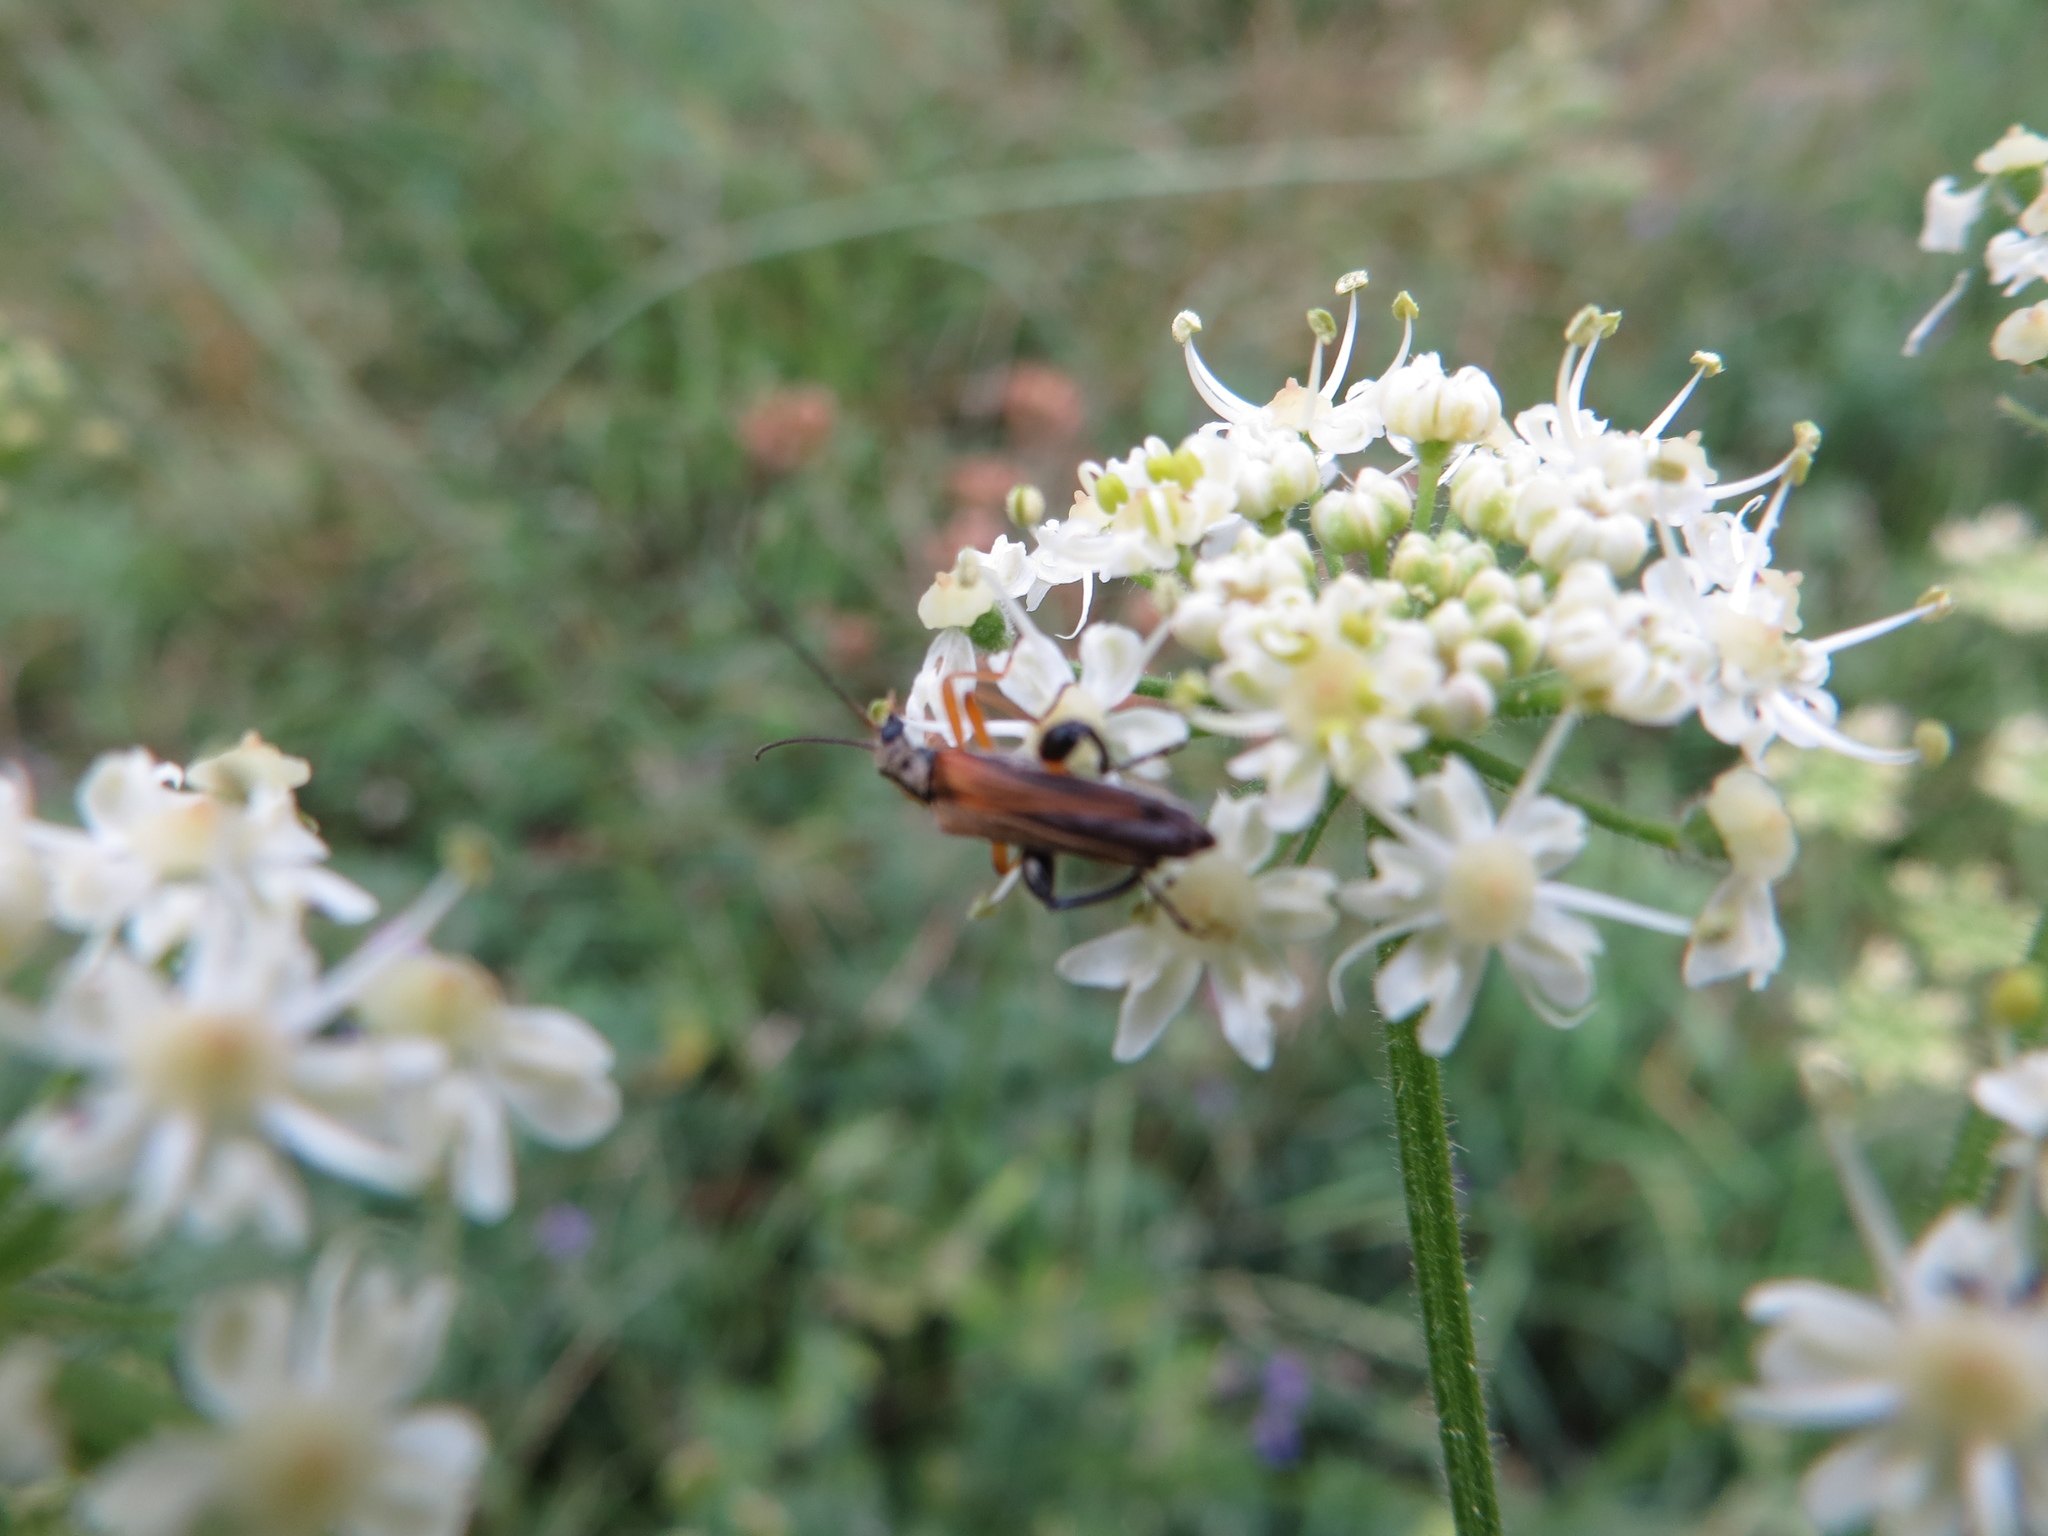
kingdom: Animalia
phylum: Arthropoda
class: Insecta
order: Coleoptera
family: Oedemeridae
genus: Oedemera
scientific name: Oedemera podagrariae
